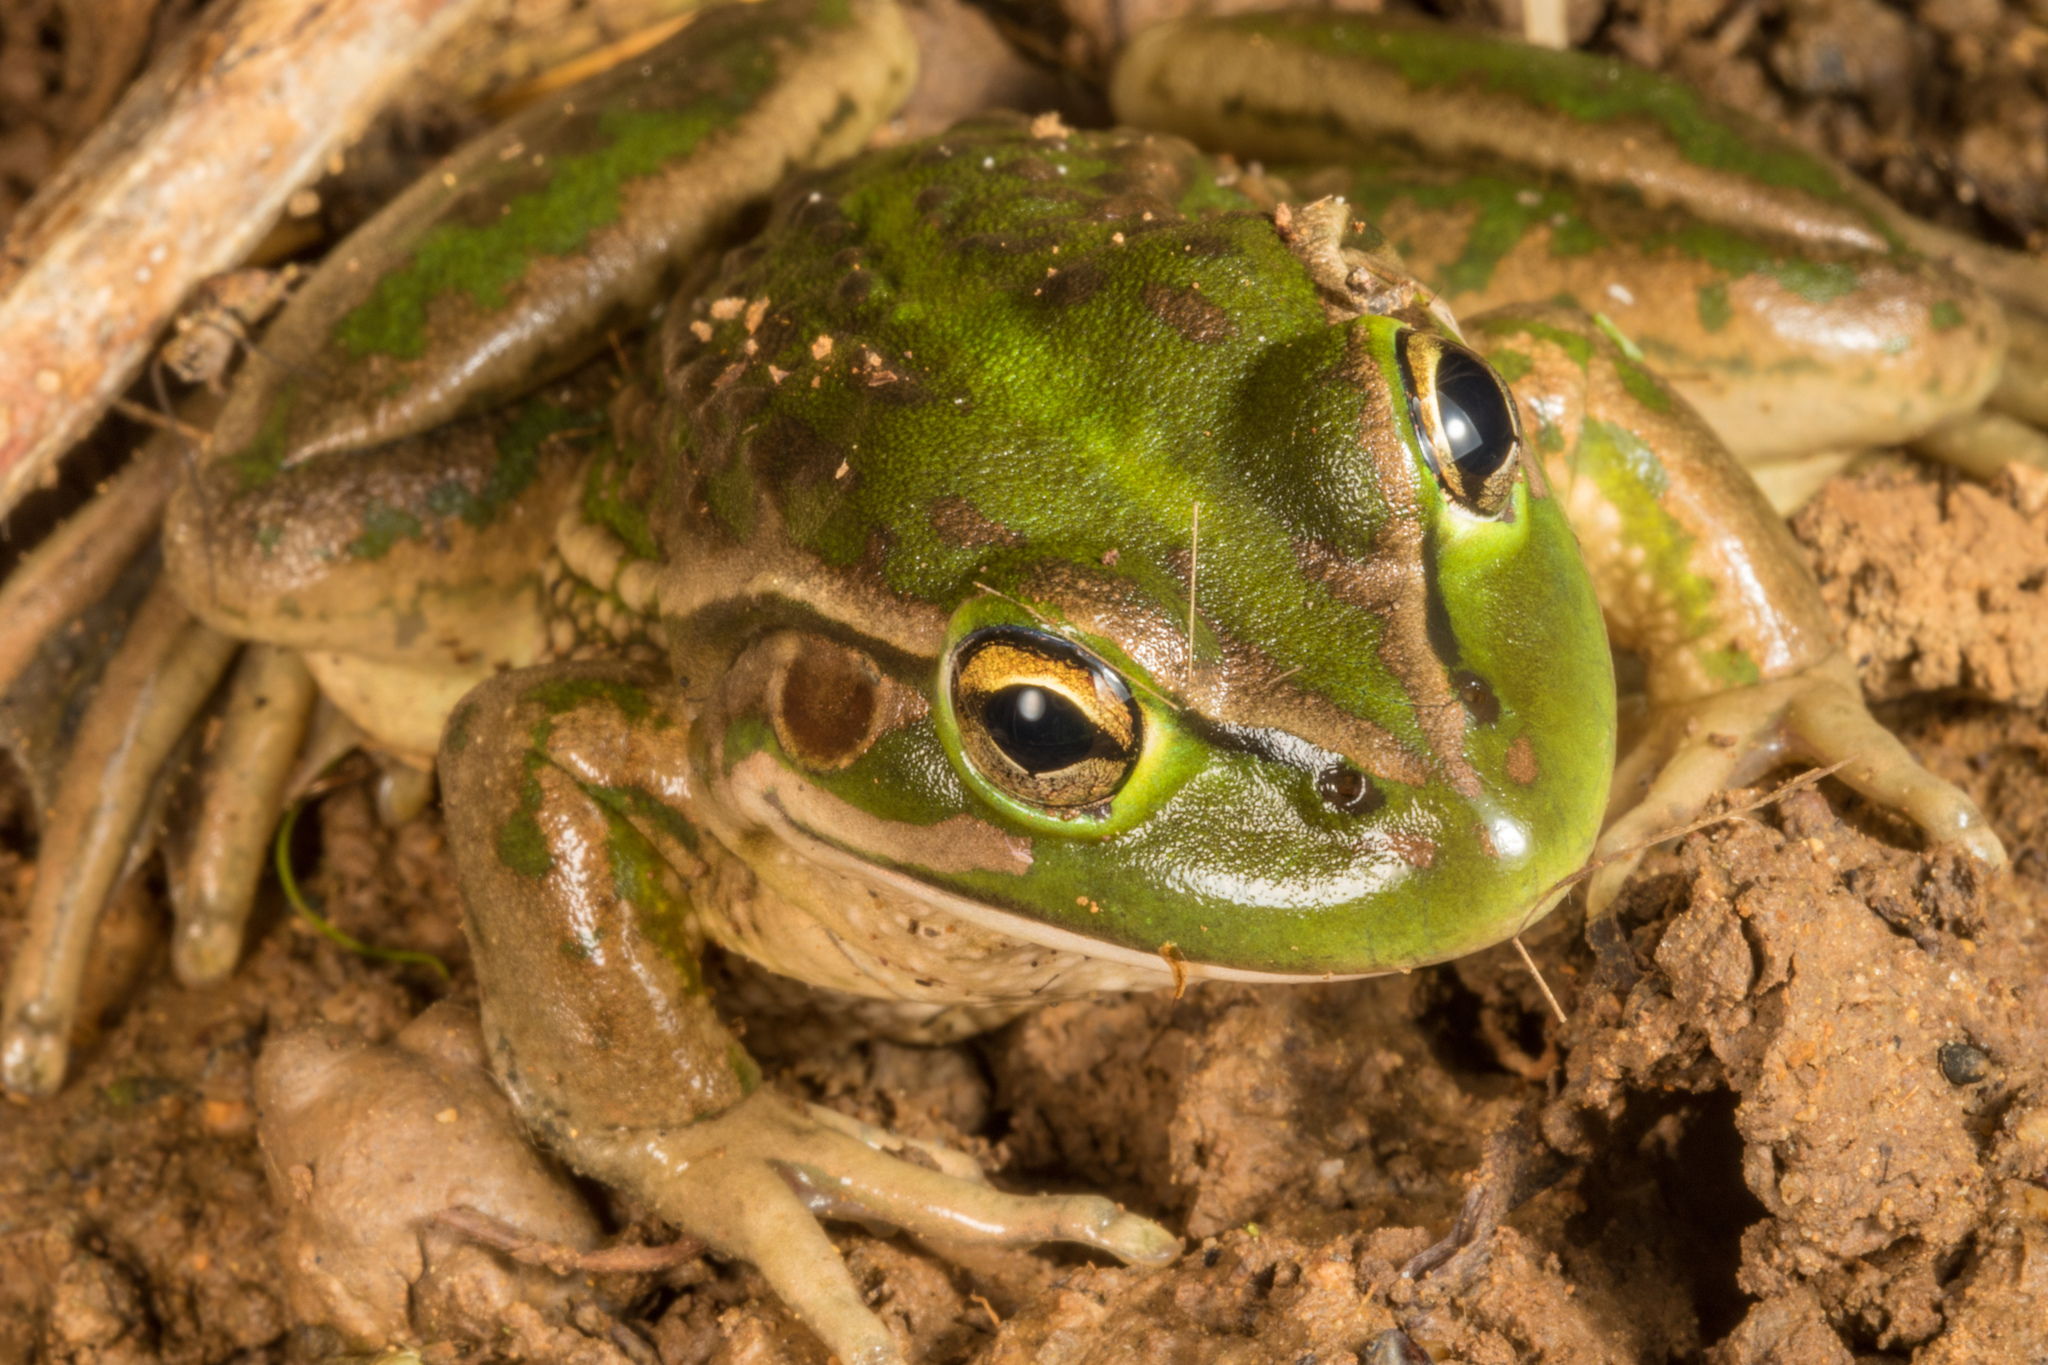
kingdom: Animalia
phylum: Chordata
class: Amphibia
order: Anura
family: Pelodryadidae
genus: Ranoidea
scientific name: Ranoidea raniformis
